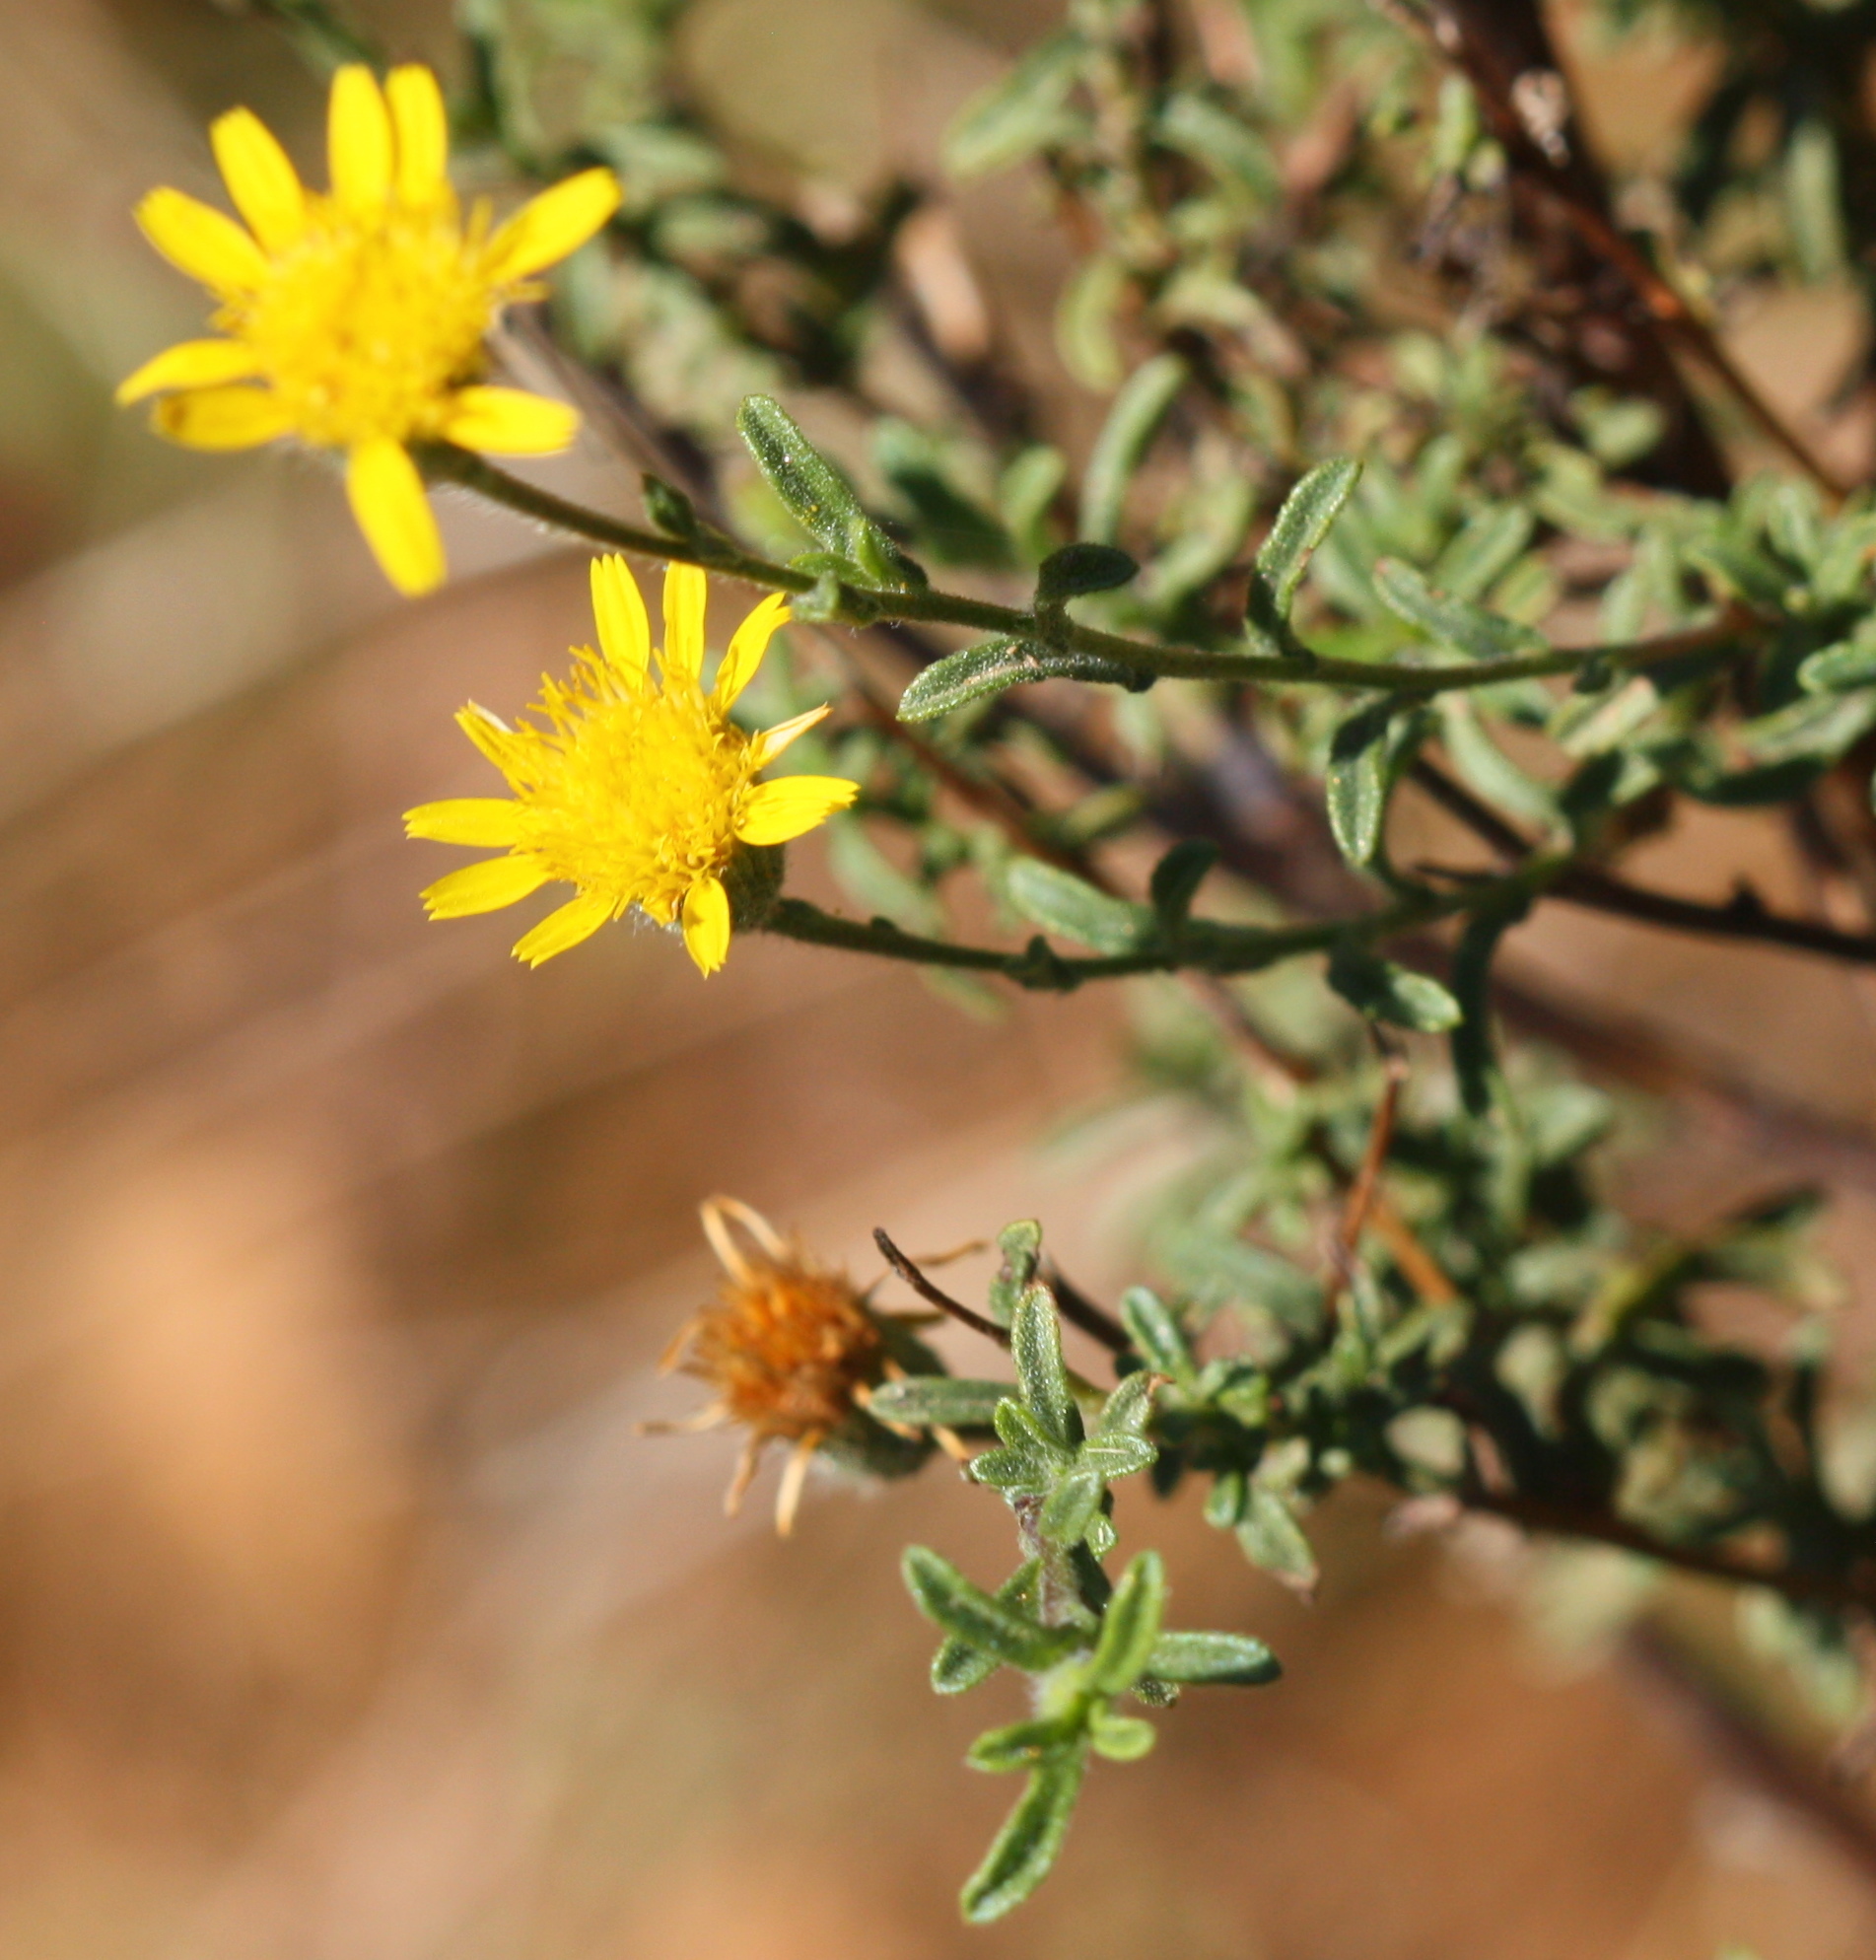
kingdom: Plantae
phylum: Tracheophyta
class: Magnoliopsida
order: Asterales
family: Asteraceae
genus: Pulicaria
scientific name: Pulicaria paludosa
